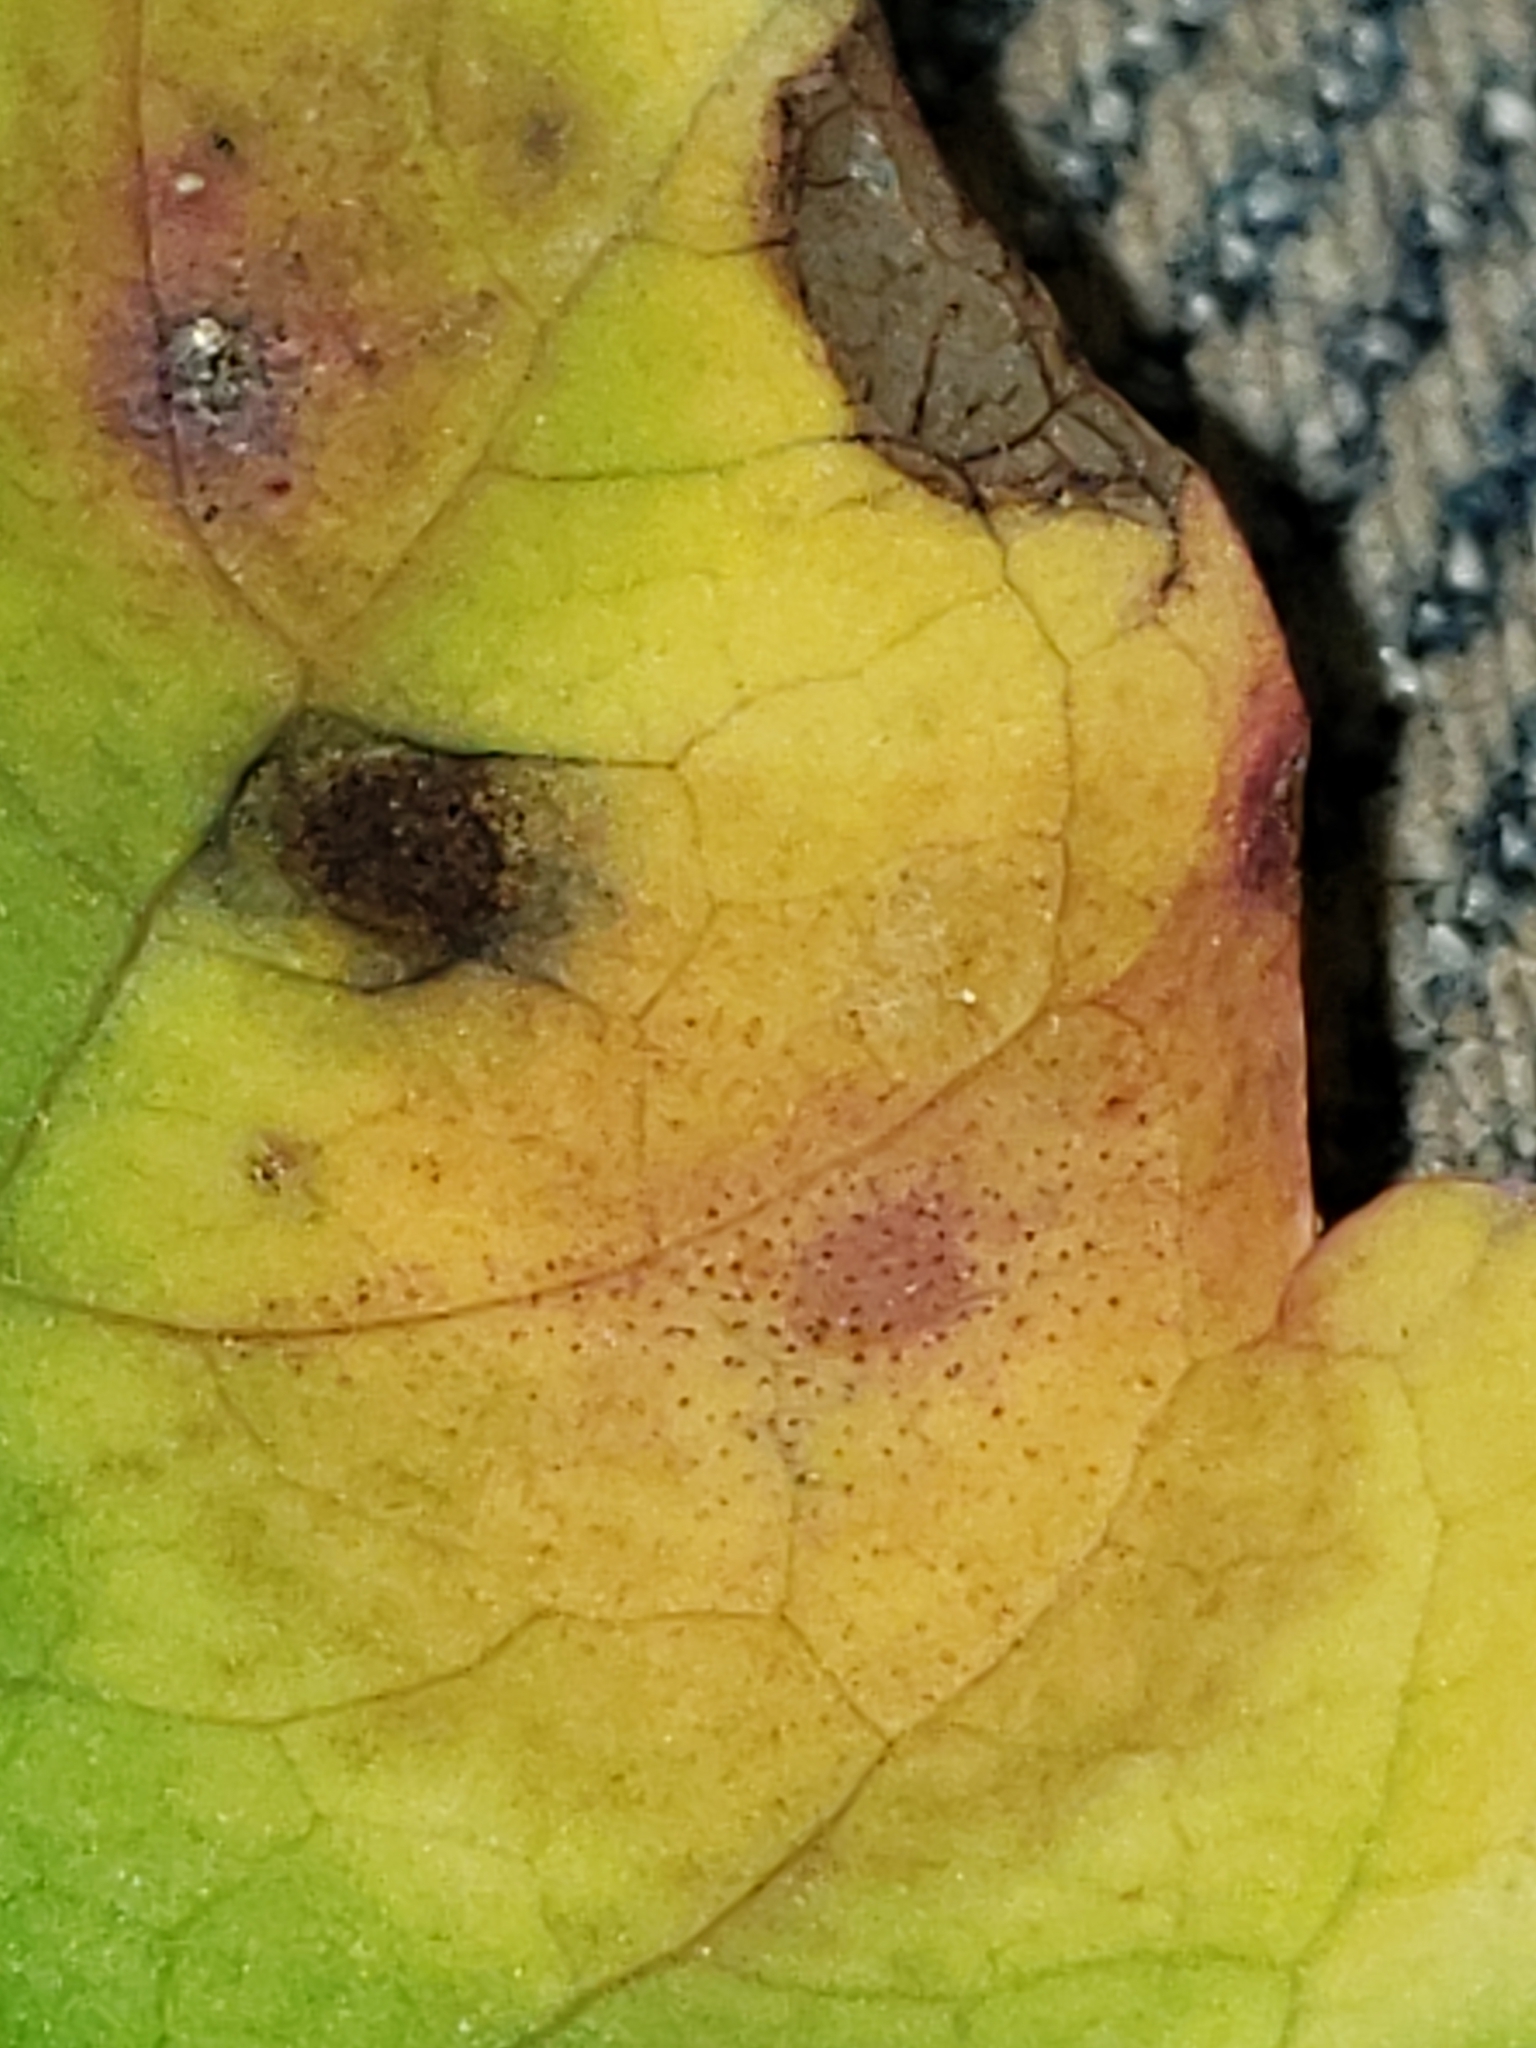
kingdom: Fungi
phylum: Basidiomycota
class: Pucciniomycetes
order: Pucciniales
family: Pucciniaceae
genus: Puccinia
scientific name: Puccinia recondita
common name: Brown rust of wheat
